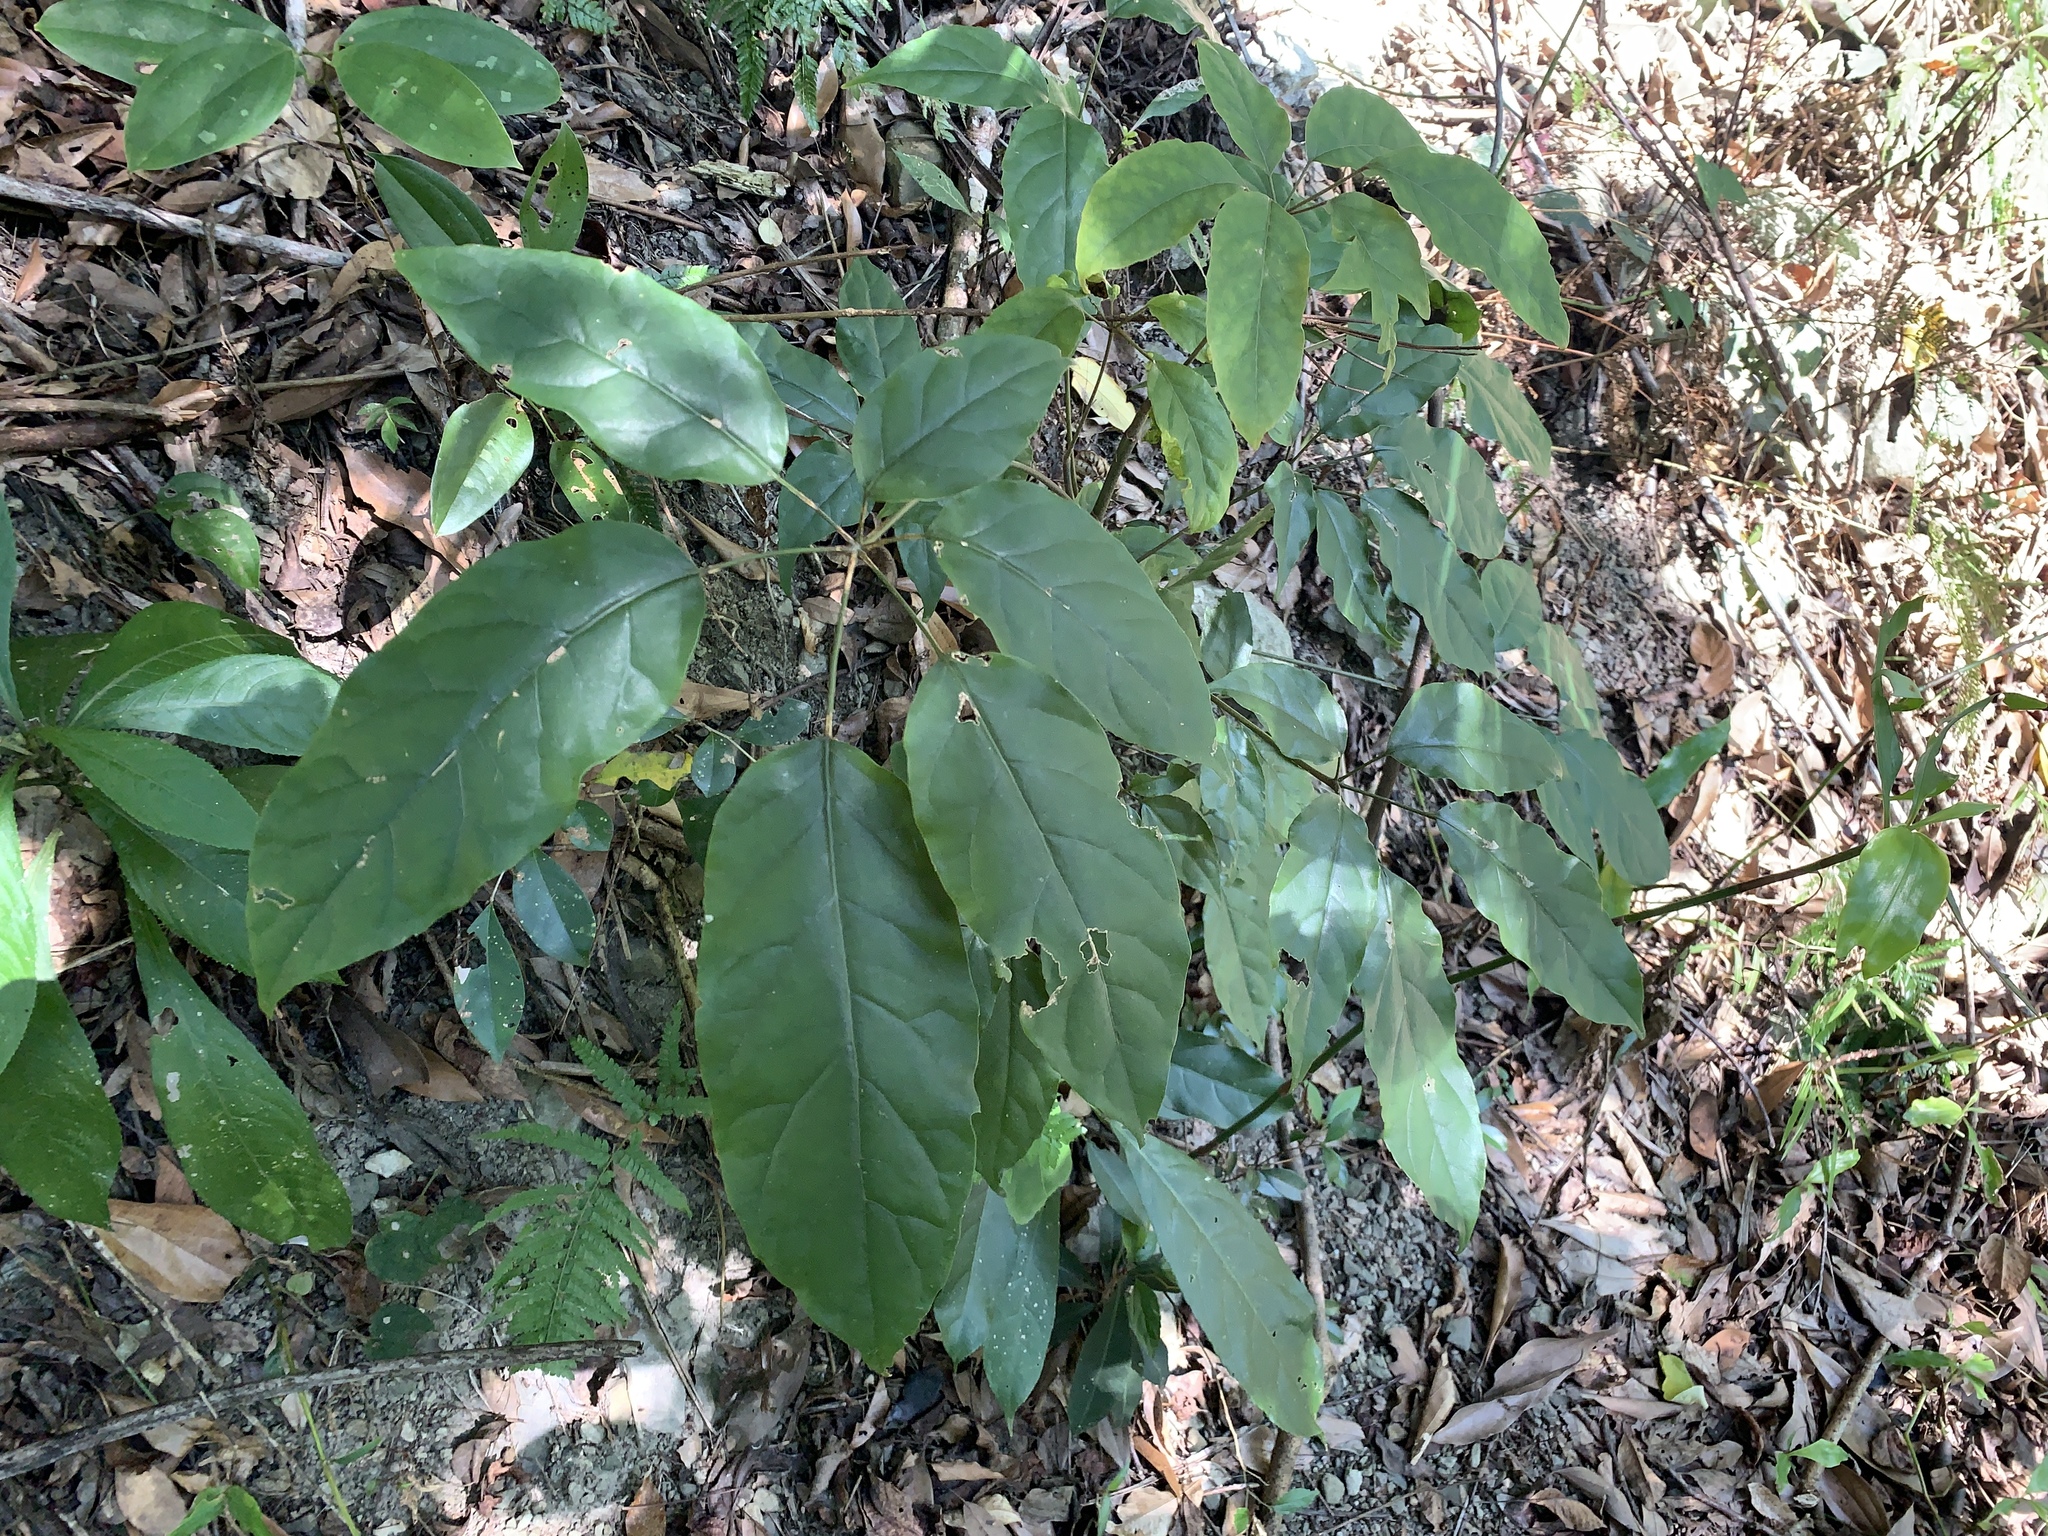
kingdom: Plantae
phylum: Tracheophyta
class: Magnoliopsida
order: Apiales
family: Araliaceae
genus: Heptapleurum
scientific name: Heptapleurum heptaphyllum
